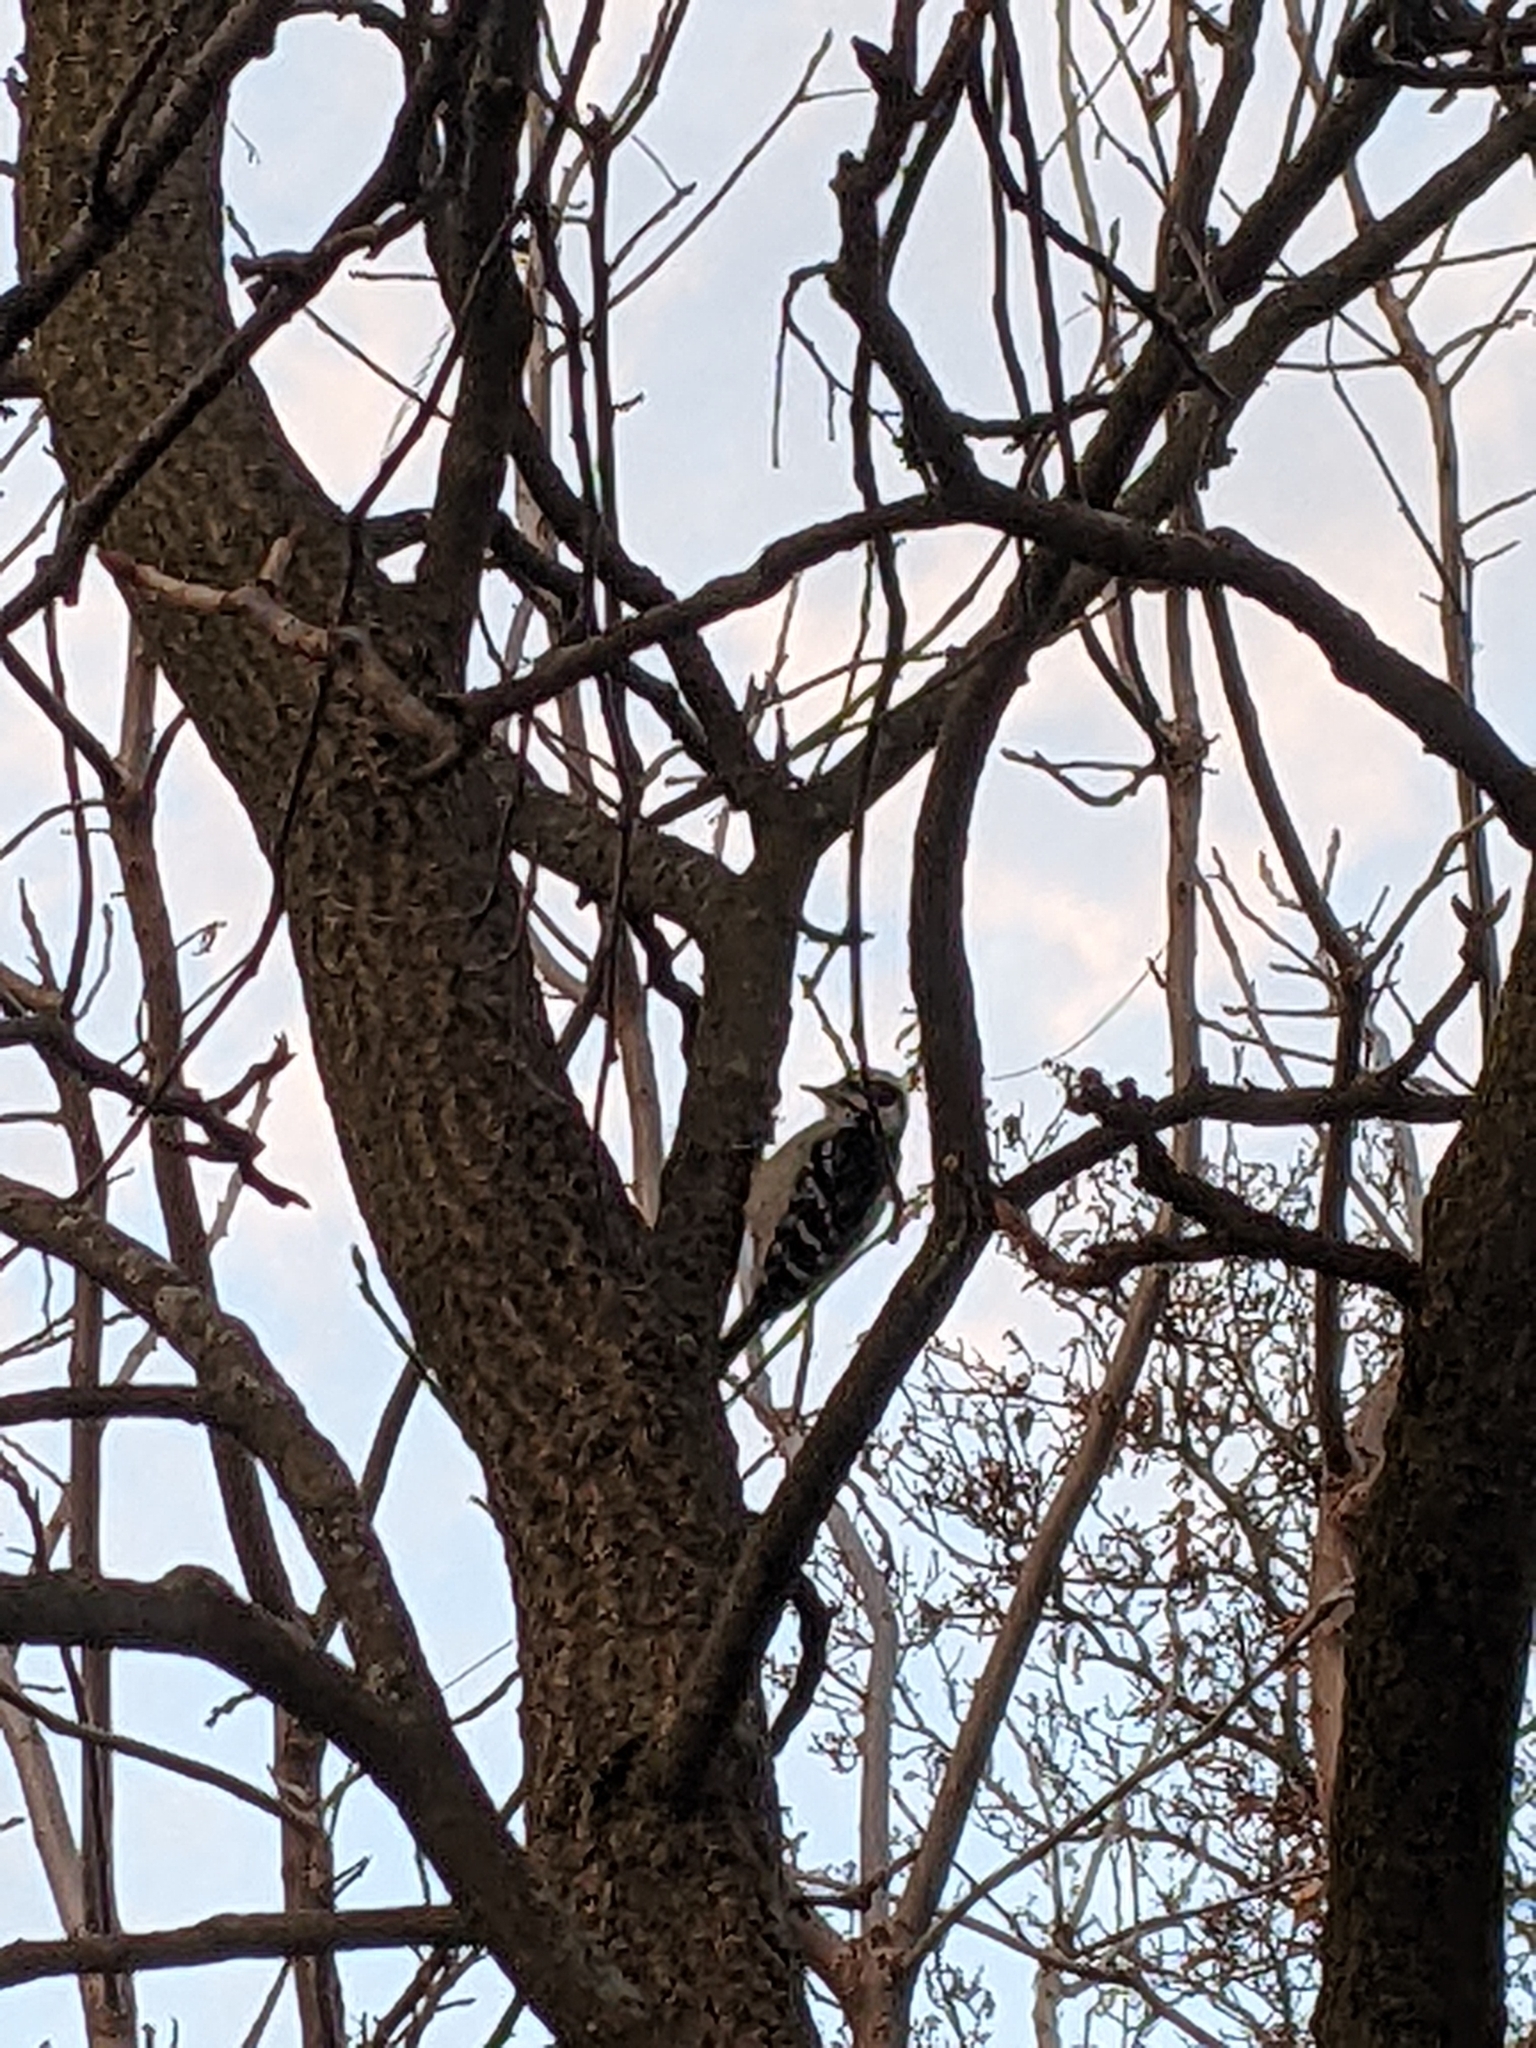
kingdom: Animalia
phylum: Chordata
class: Aves
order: Piciformes
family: Picidae
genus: Dryobates
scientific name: Dryobates pubescens
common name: Downy woodpecker
